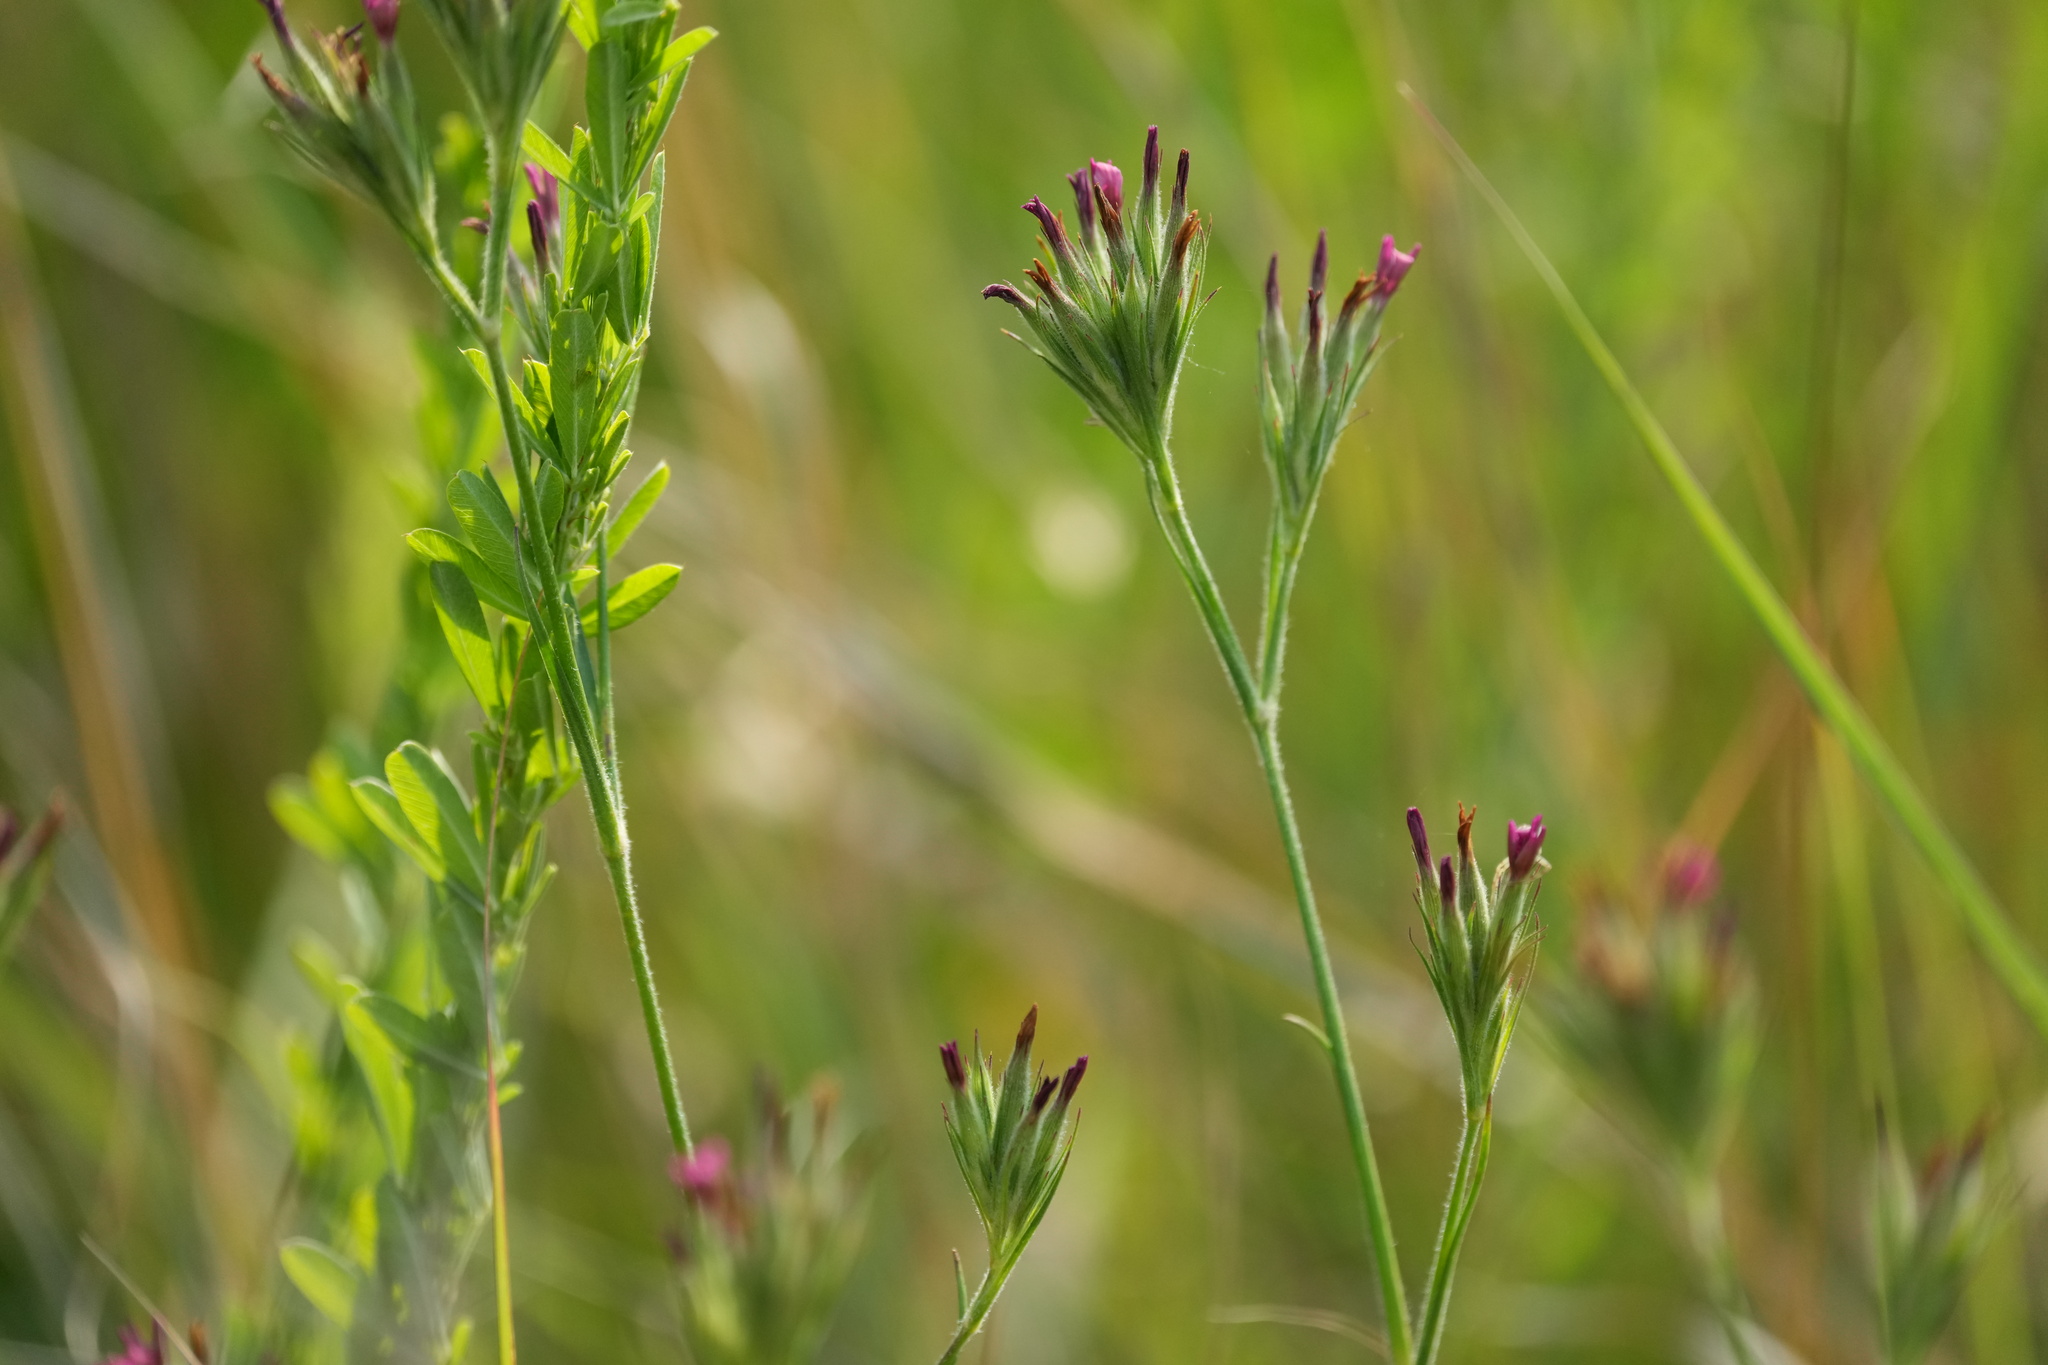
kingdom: Plantae
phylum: Tracheophyta
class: Magnoliopsida
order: Caryophyllales
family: Caryophyllaceae
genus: Dianthus
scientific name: Dianthus armeria
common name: Deptford pink
